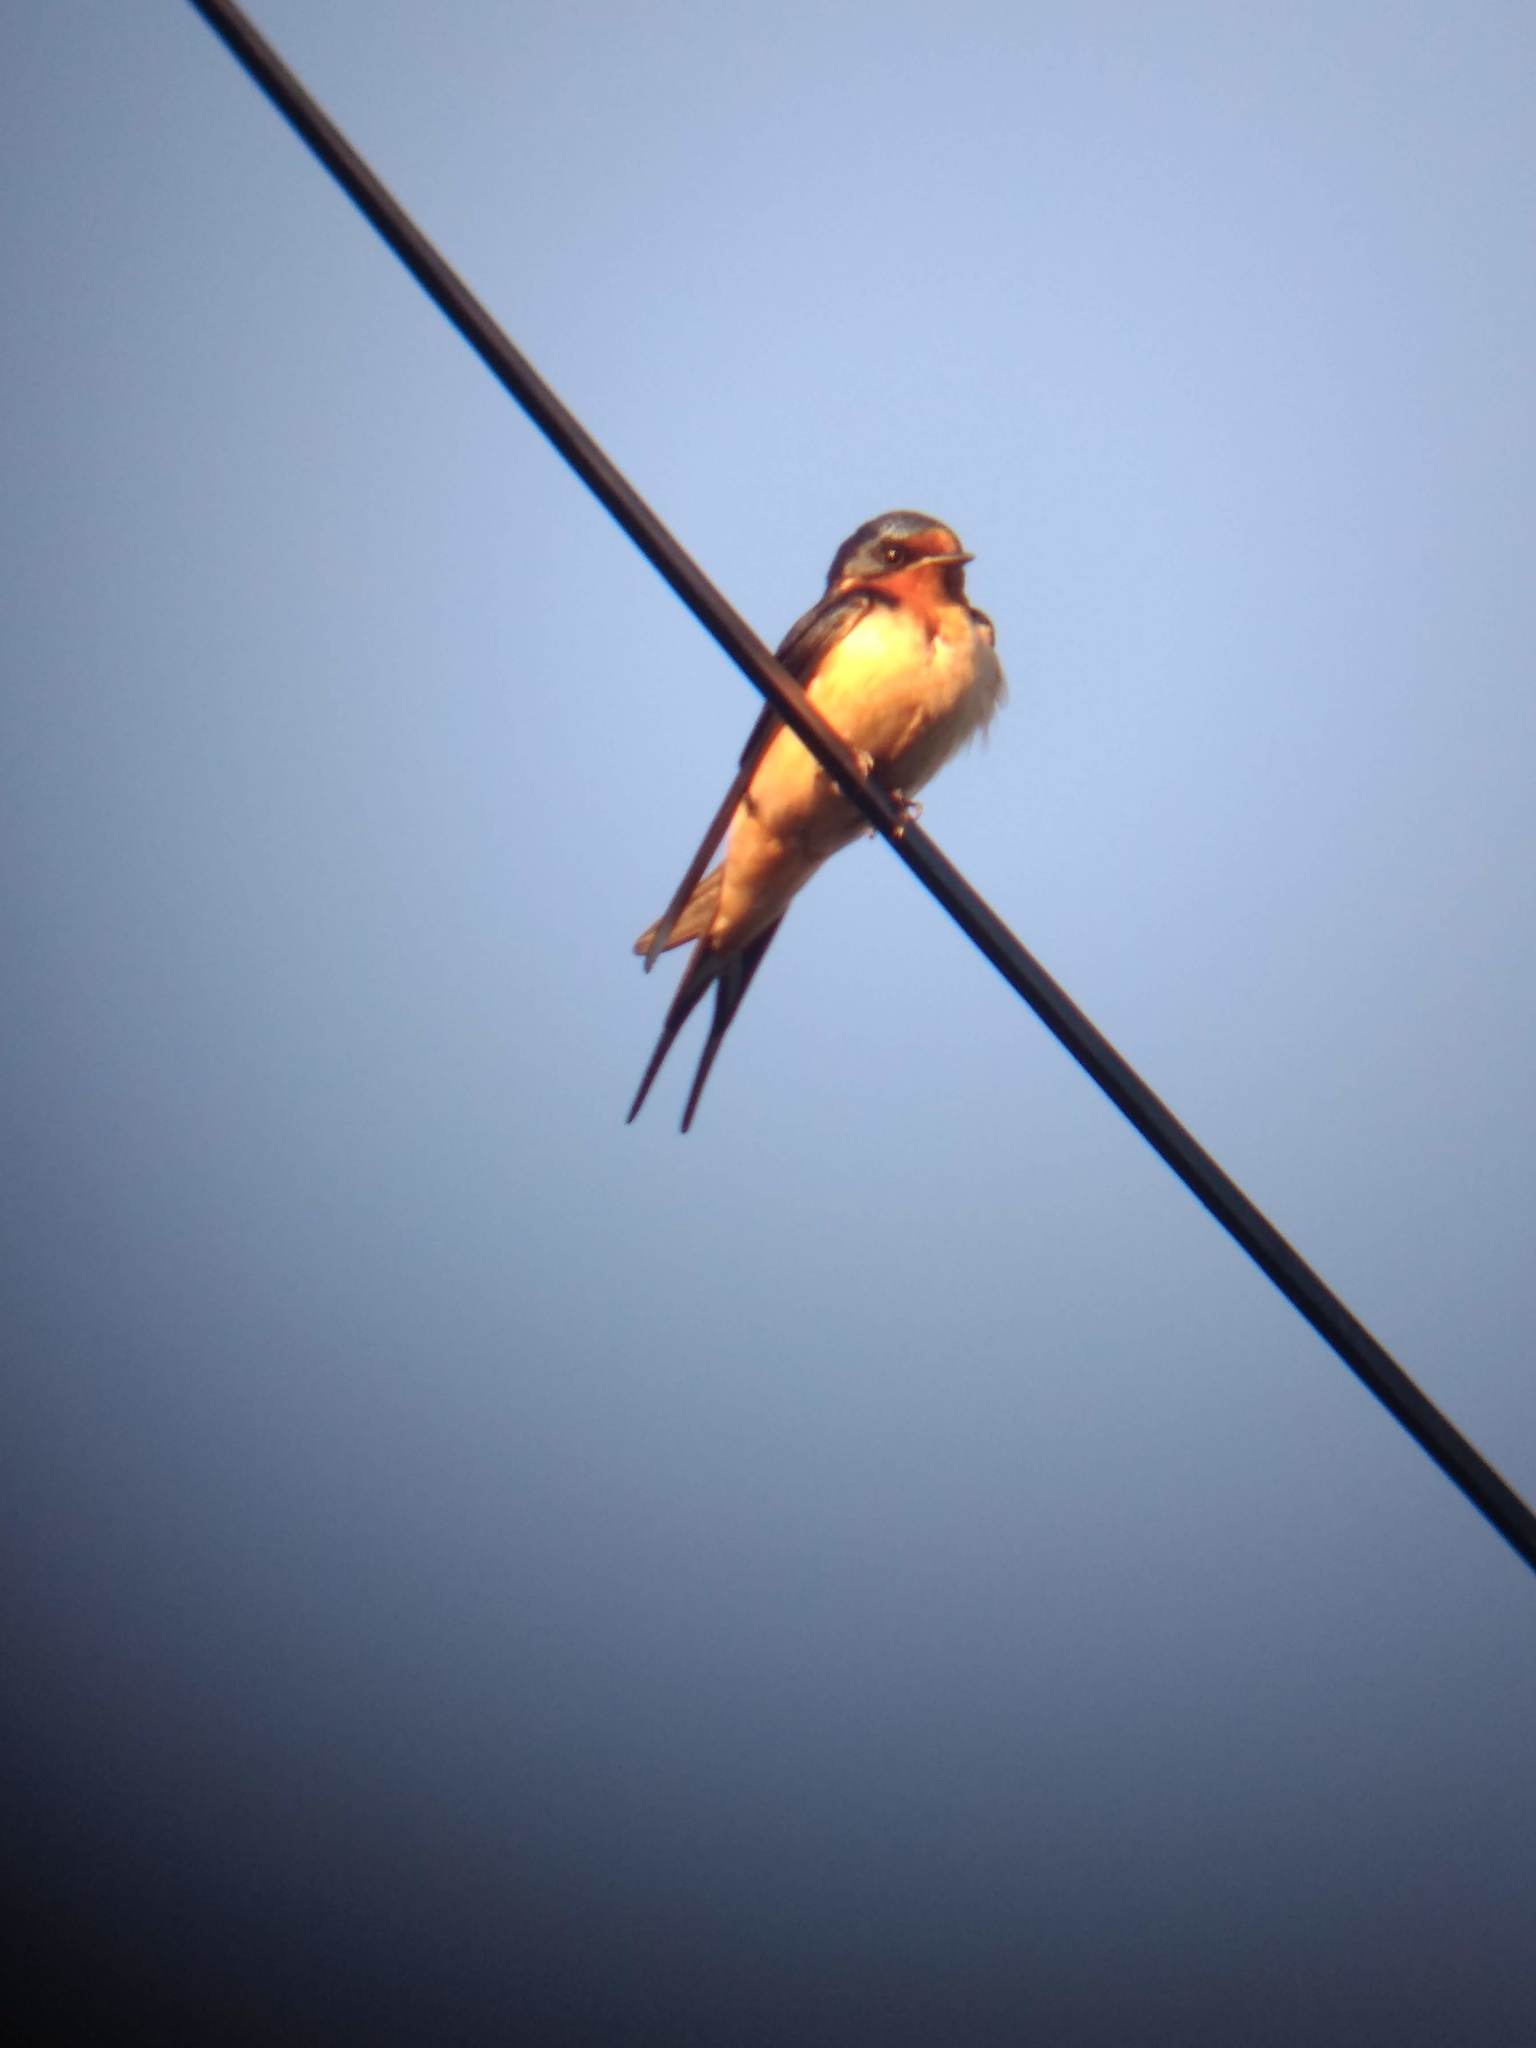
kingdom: Animalia
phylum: Chordata
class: Aves
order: Passeriformes
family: Hirundinidae
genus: Hirundo
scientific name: Hirundo rustica
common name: Barn swallow
